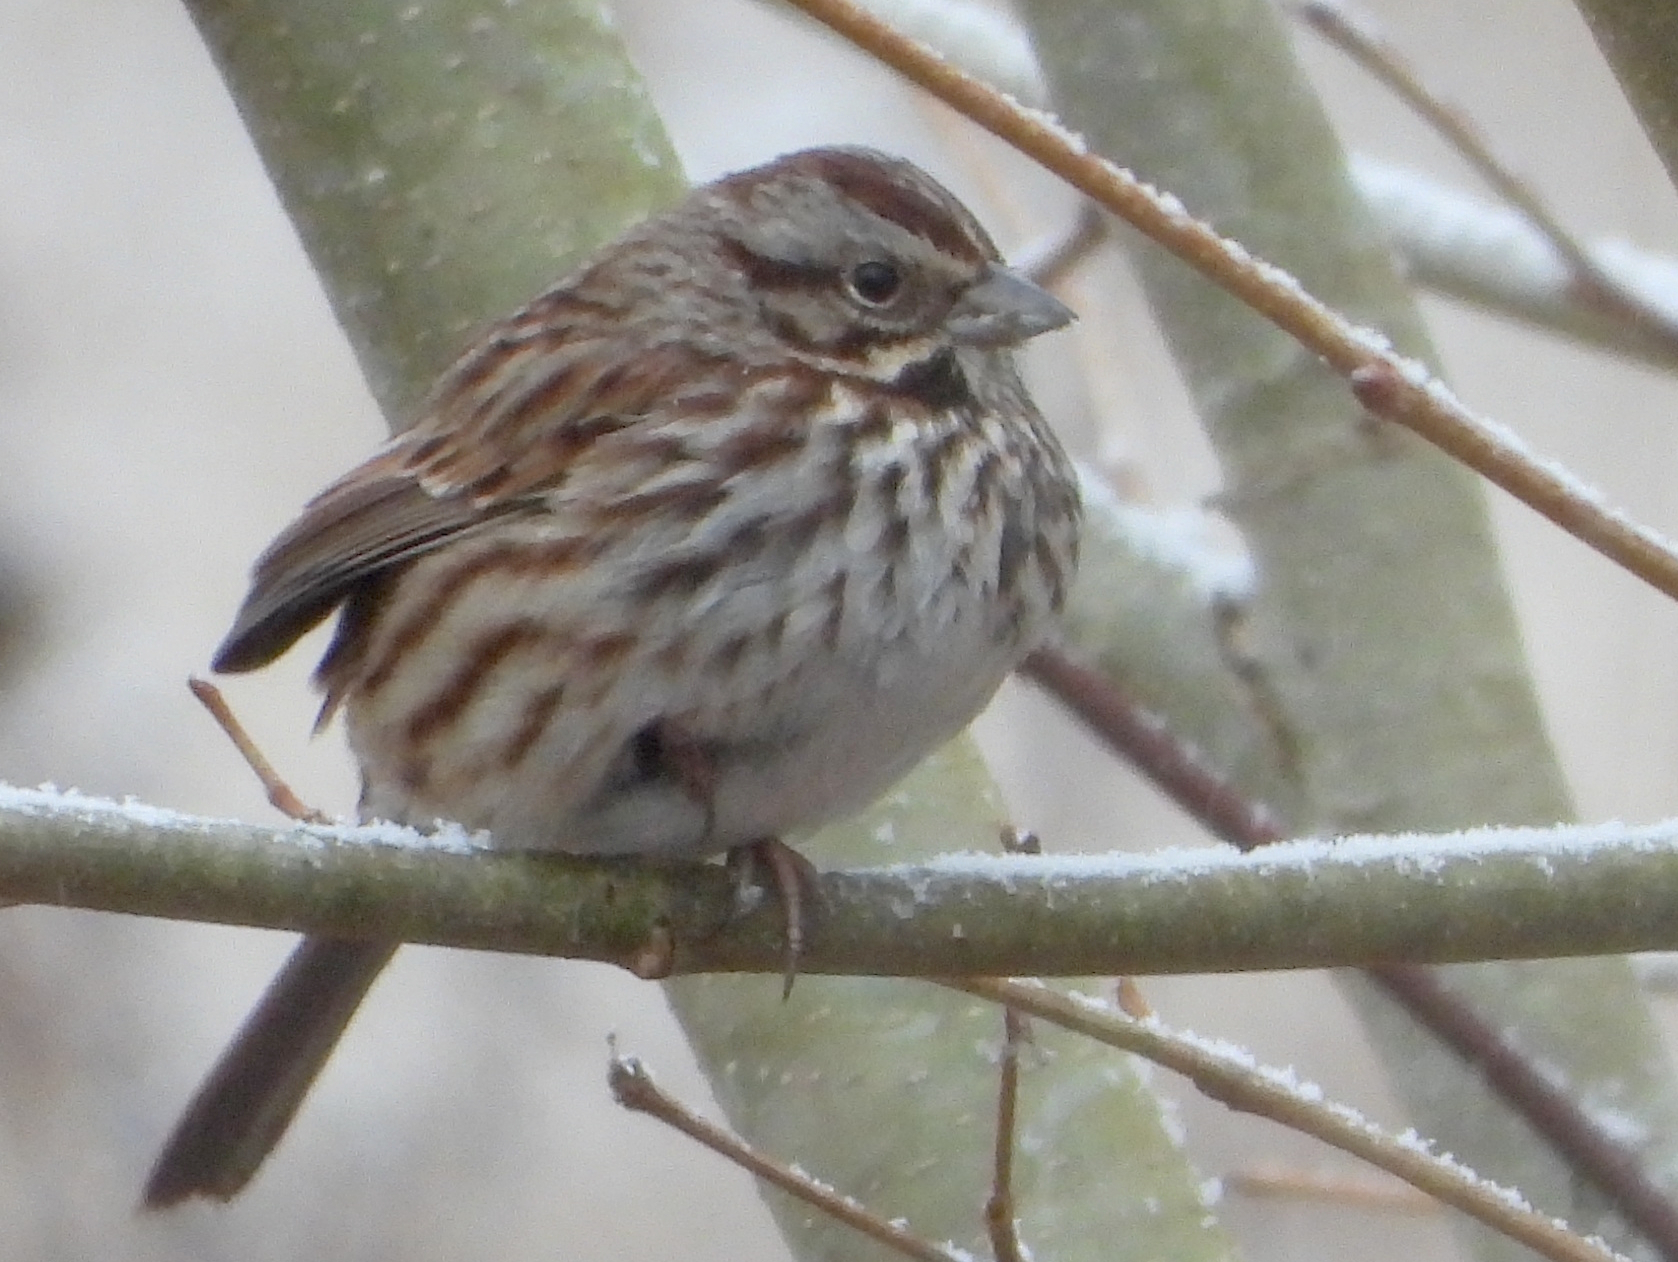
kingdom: Animalia
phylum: Chordata
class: Aves
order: Passeriformes
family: Passerellidae
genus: Melospiza
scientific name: Melospiza melodia
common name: Song sparrow
